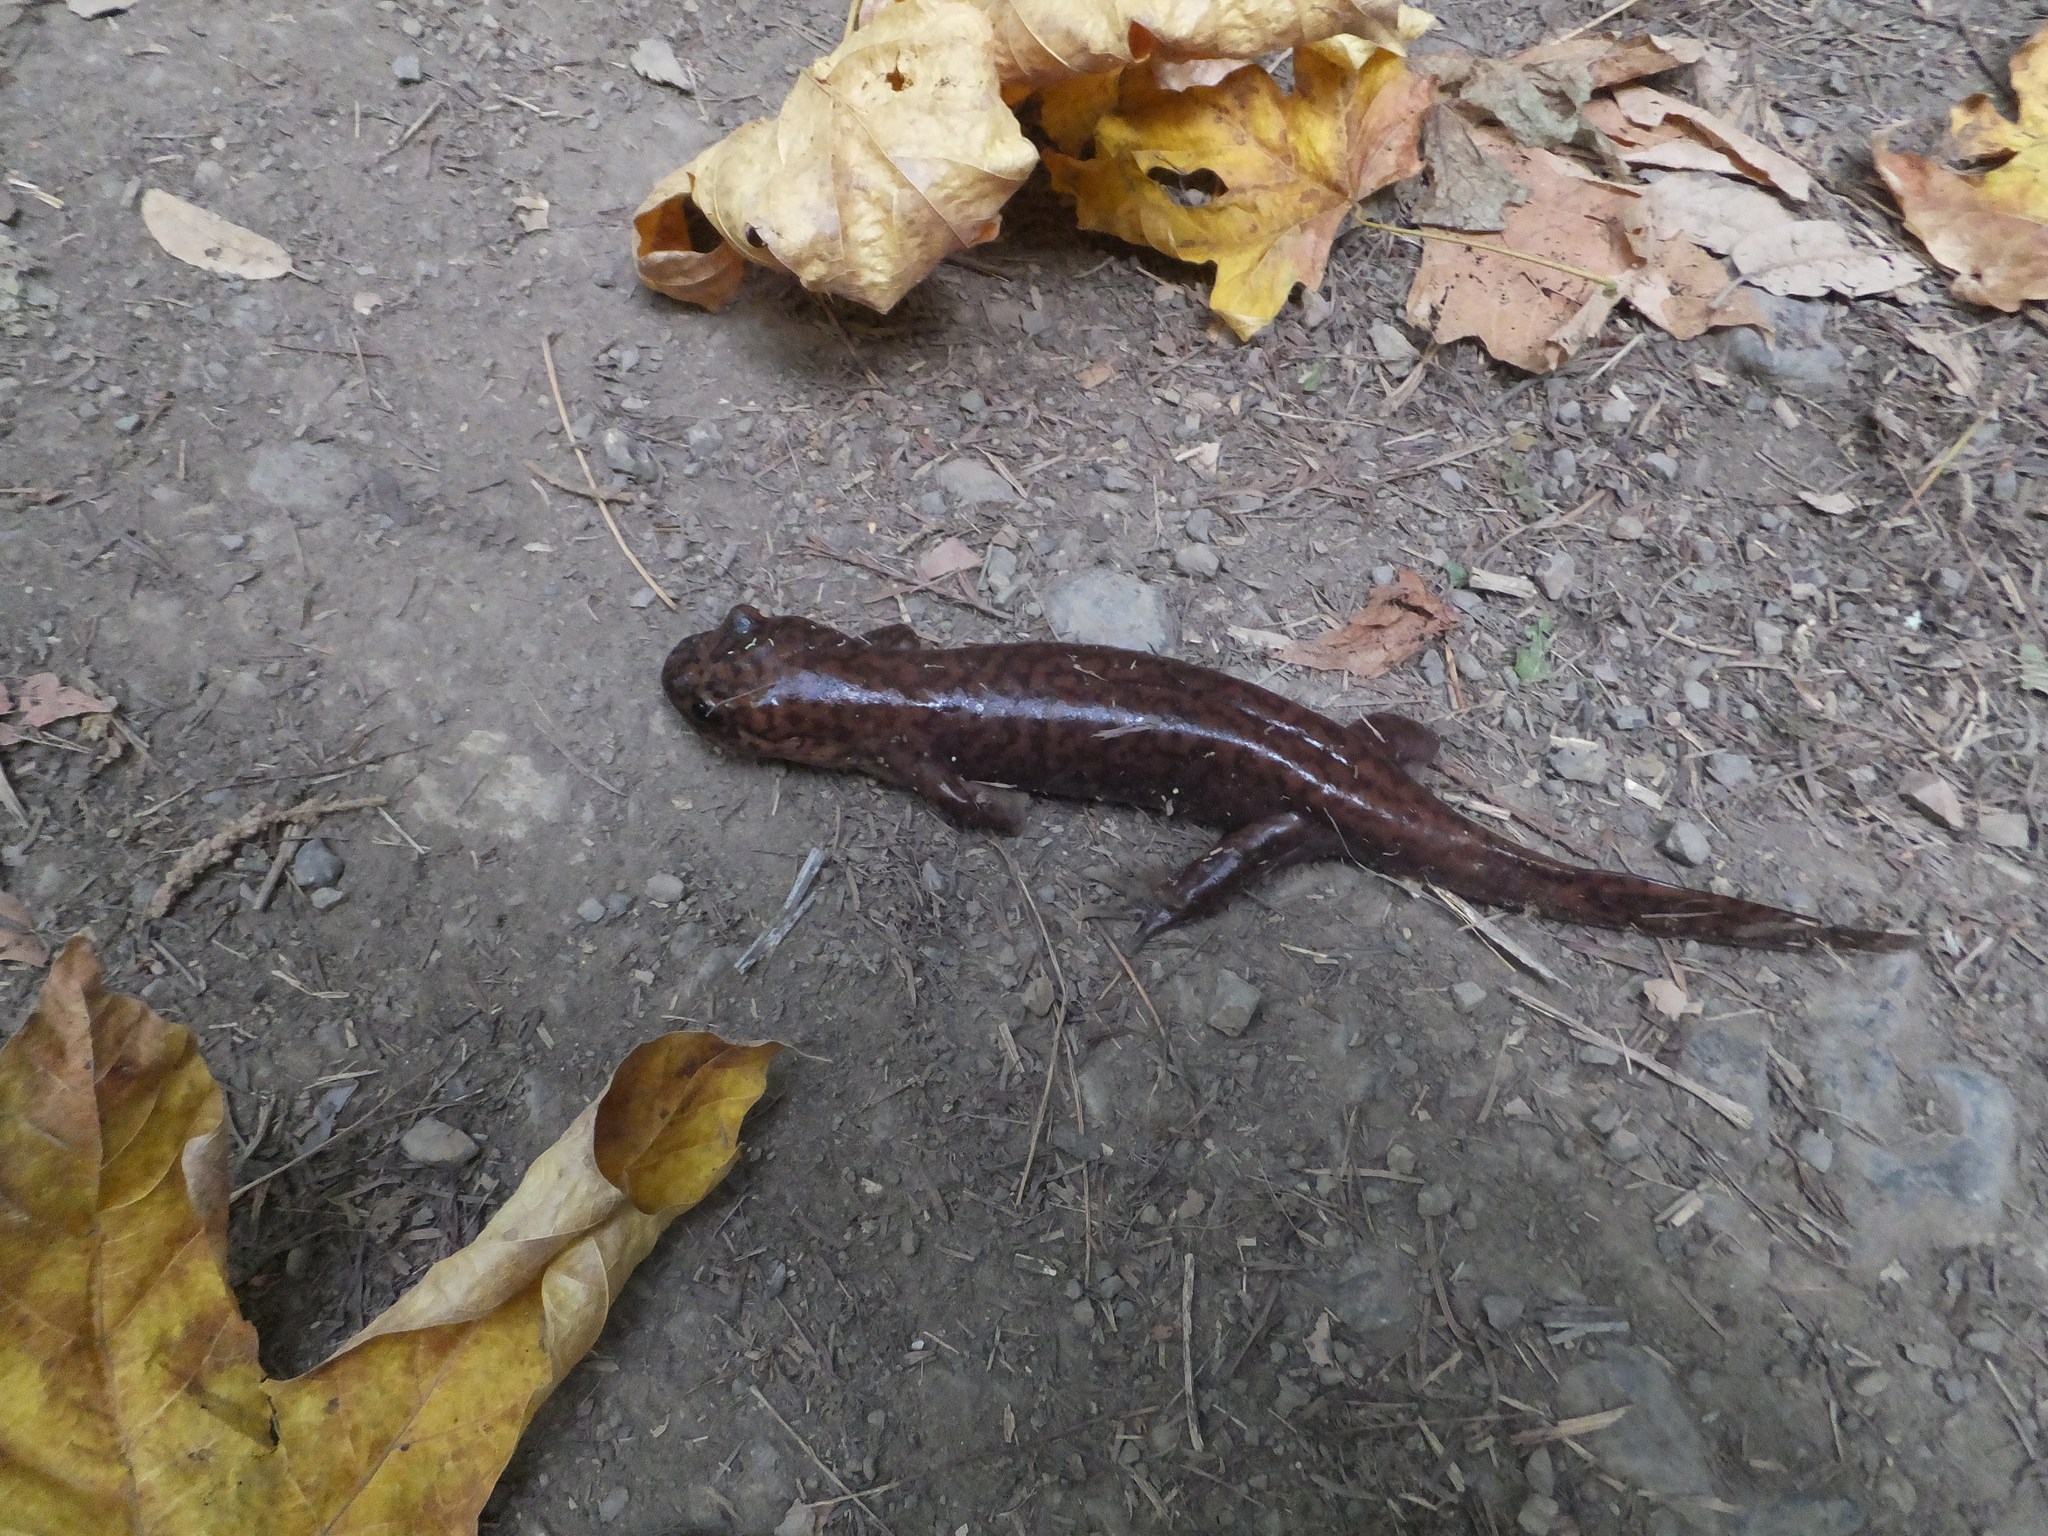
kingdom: Animalia
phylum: Chordata
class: Amphibia
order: Caudata
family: Ambystomatidae
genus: Dicamptodon
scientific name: Dicamptodon ensatus
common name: California giant salamander
